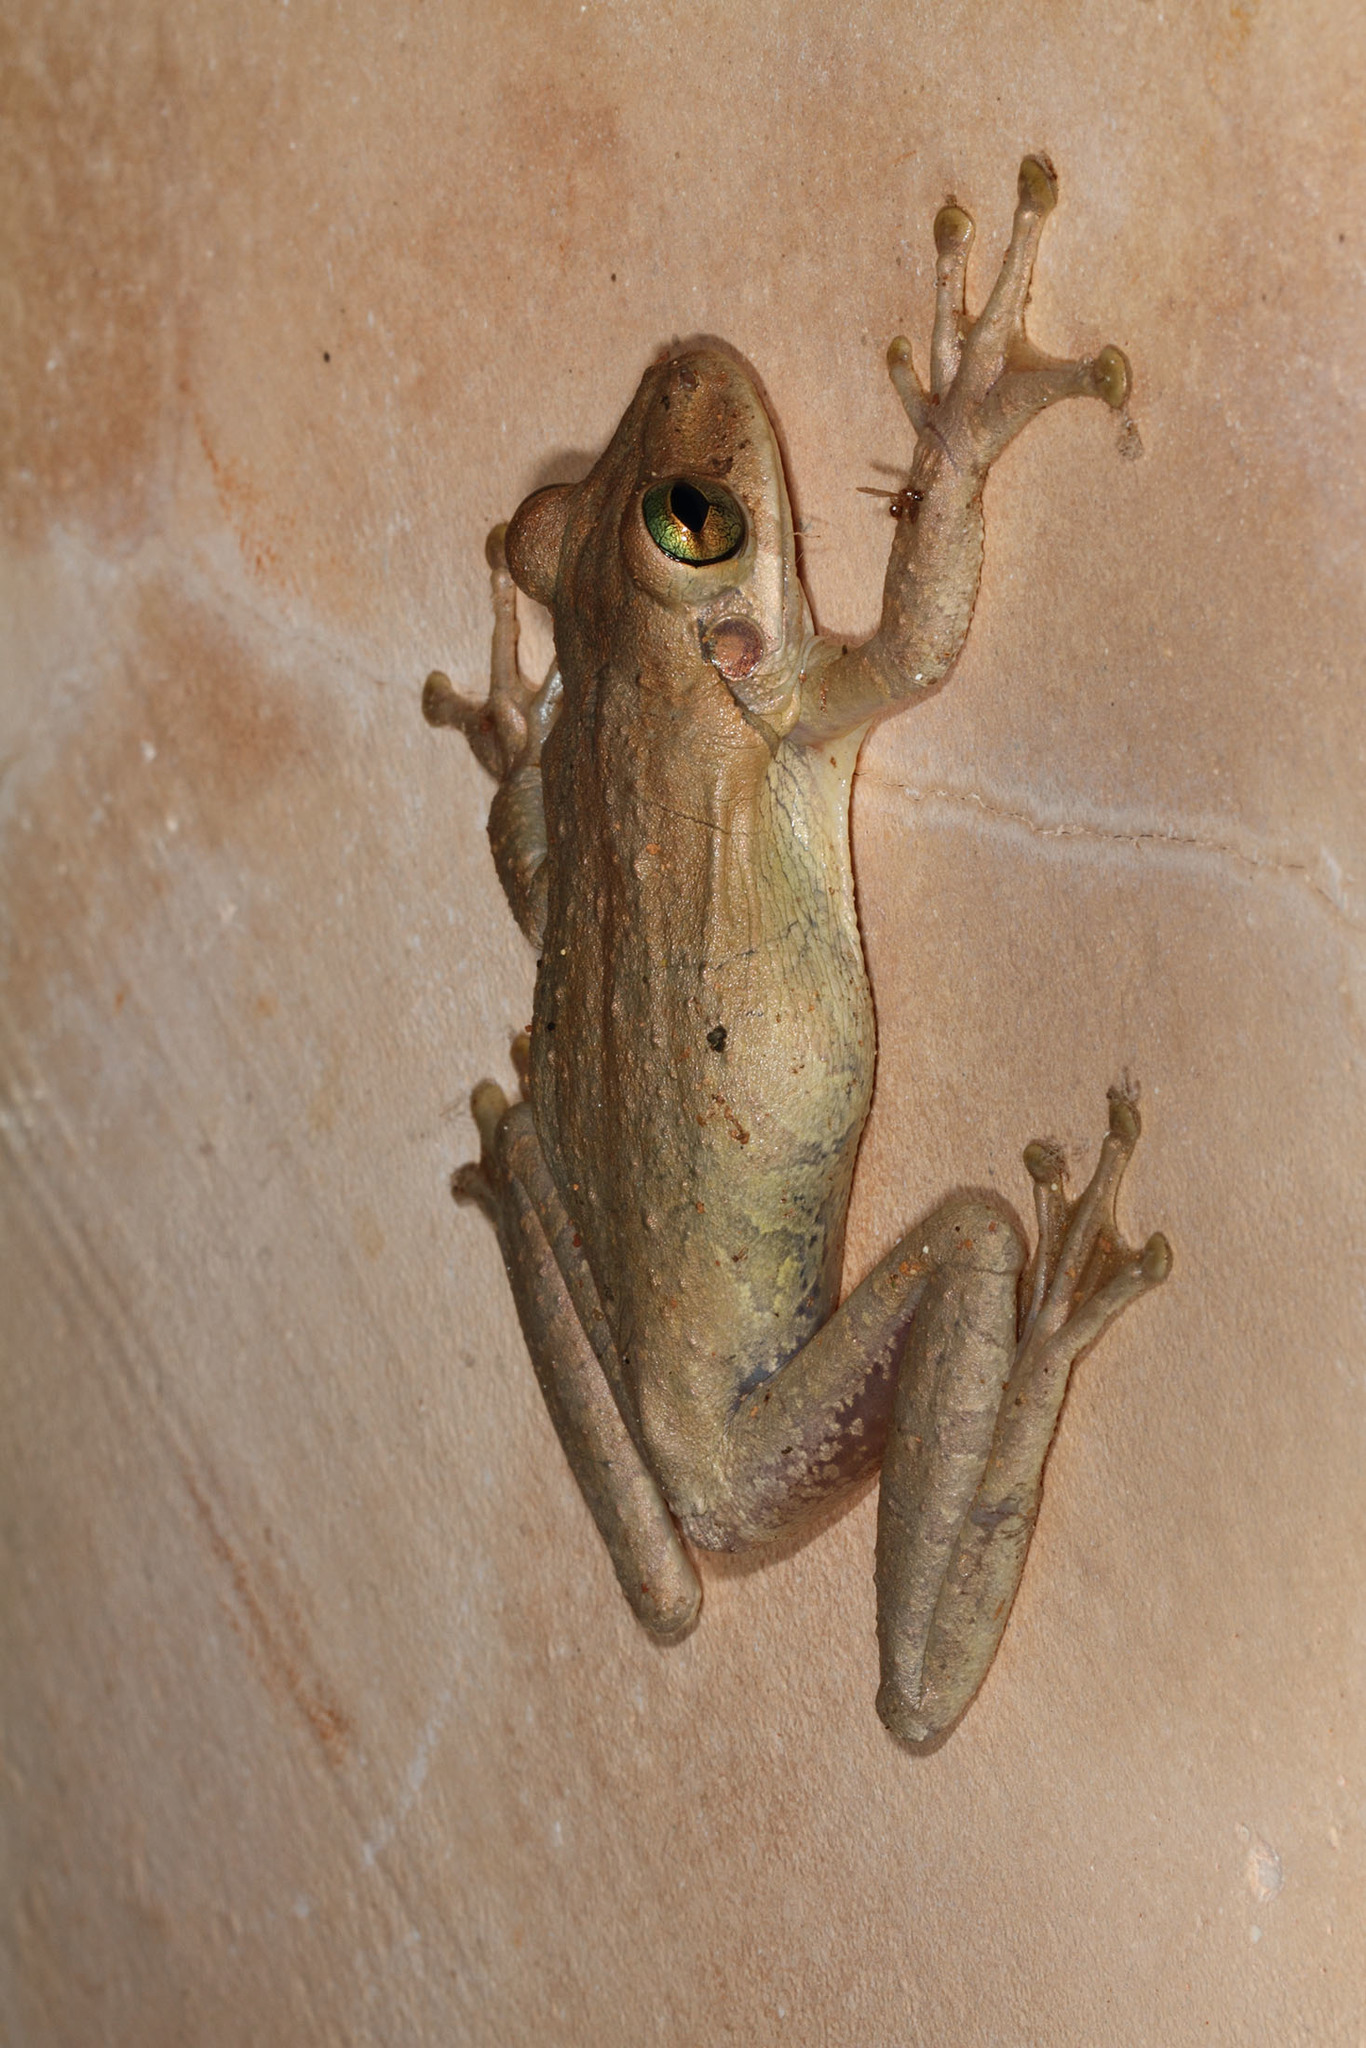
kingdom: Animalia
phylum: Chordata
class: Amphibia
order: Anura
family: Hylidae
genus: Osteopilus
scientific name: Osteopilus dominicensis
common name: Hispaniolan common treefrog
